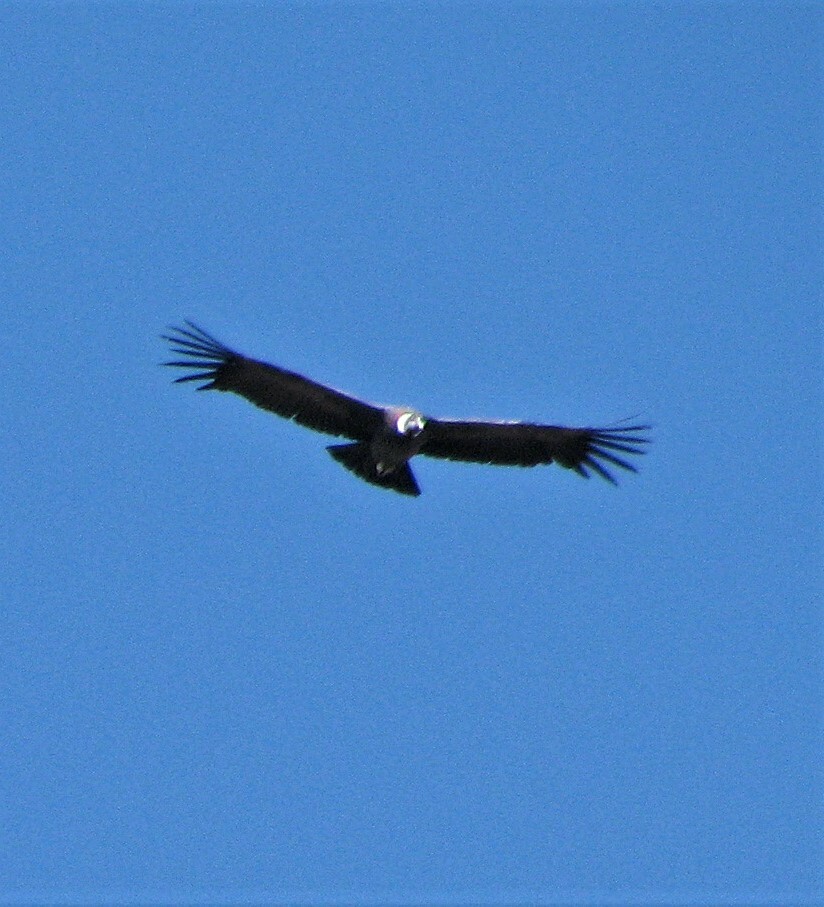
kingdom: Animalia
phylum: Chordata
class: Aves
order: Accipitriformes
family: Cathartidae
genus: Vultur
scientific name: Vultur gryphus
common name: Andean condor
